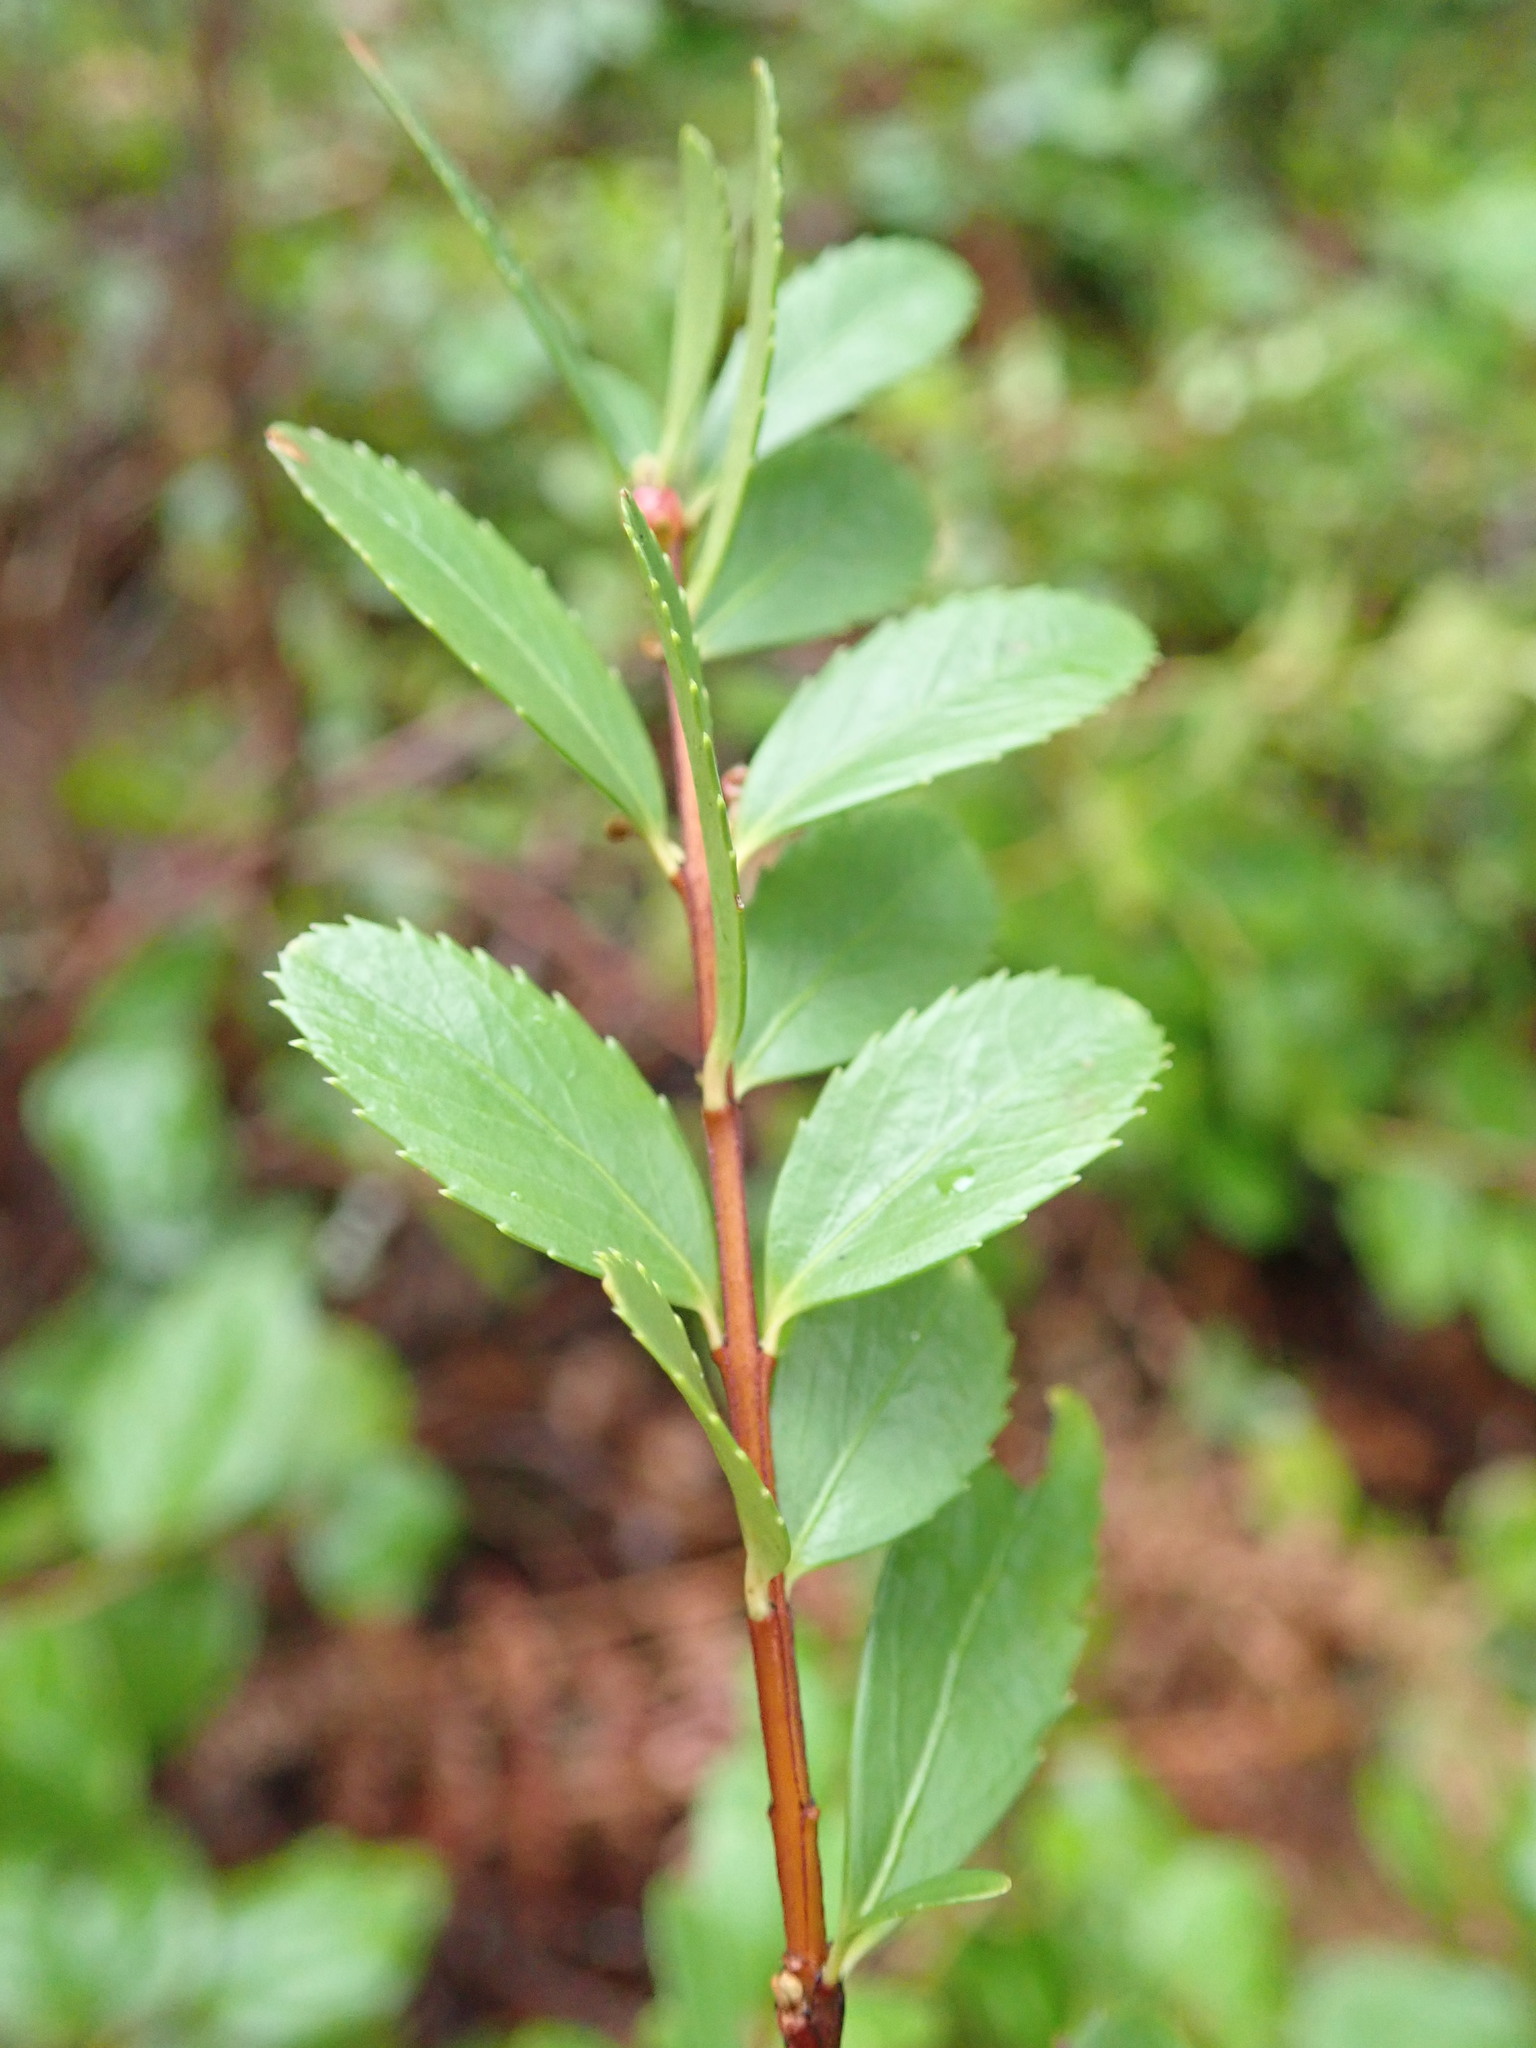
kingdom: Plantae
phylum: Tracheophyta
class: Magnoliopsida
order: Celastrales
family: Celastraceae
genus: Paxistima
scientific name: Paxistima myrsinites
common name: Mountain-lover
